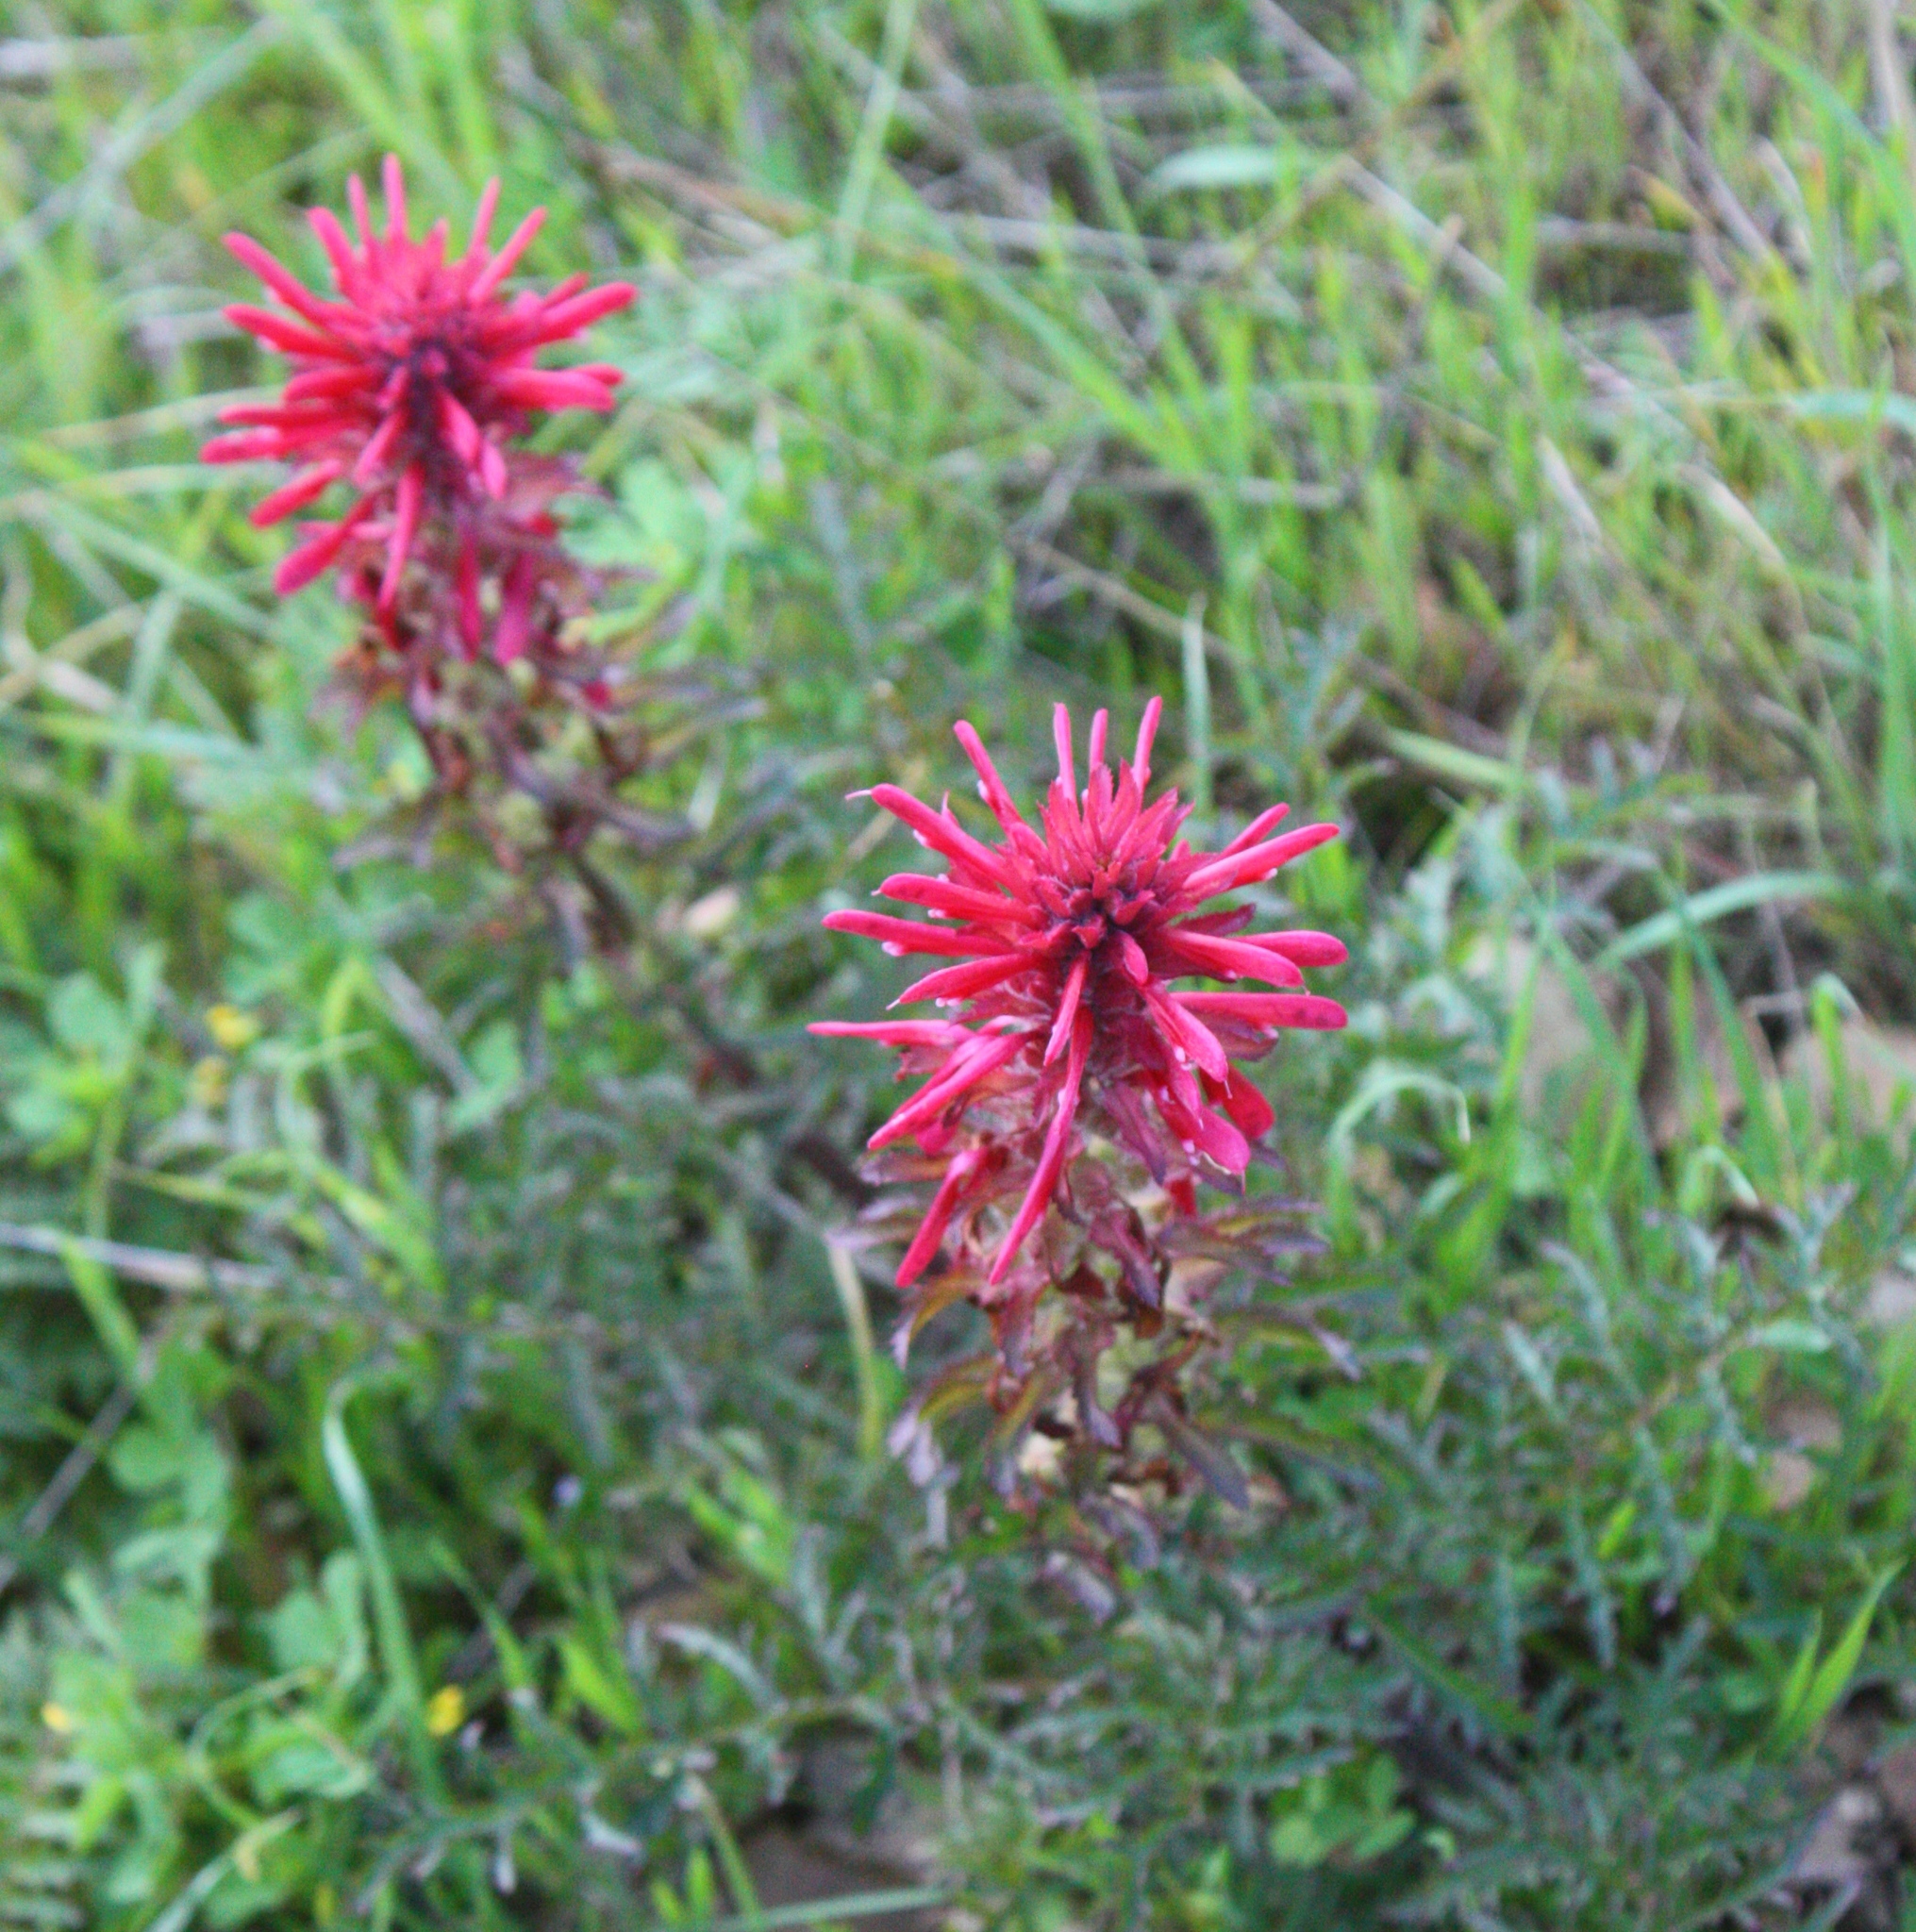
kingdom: Plantae
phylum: Tracheophyta
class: Magnoliopsida
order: Lamiales
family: Orobanchaceae
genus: Pedicularis
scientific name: Pedicularis densiflora
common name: Indian warrior
